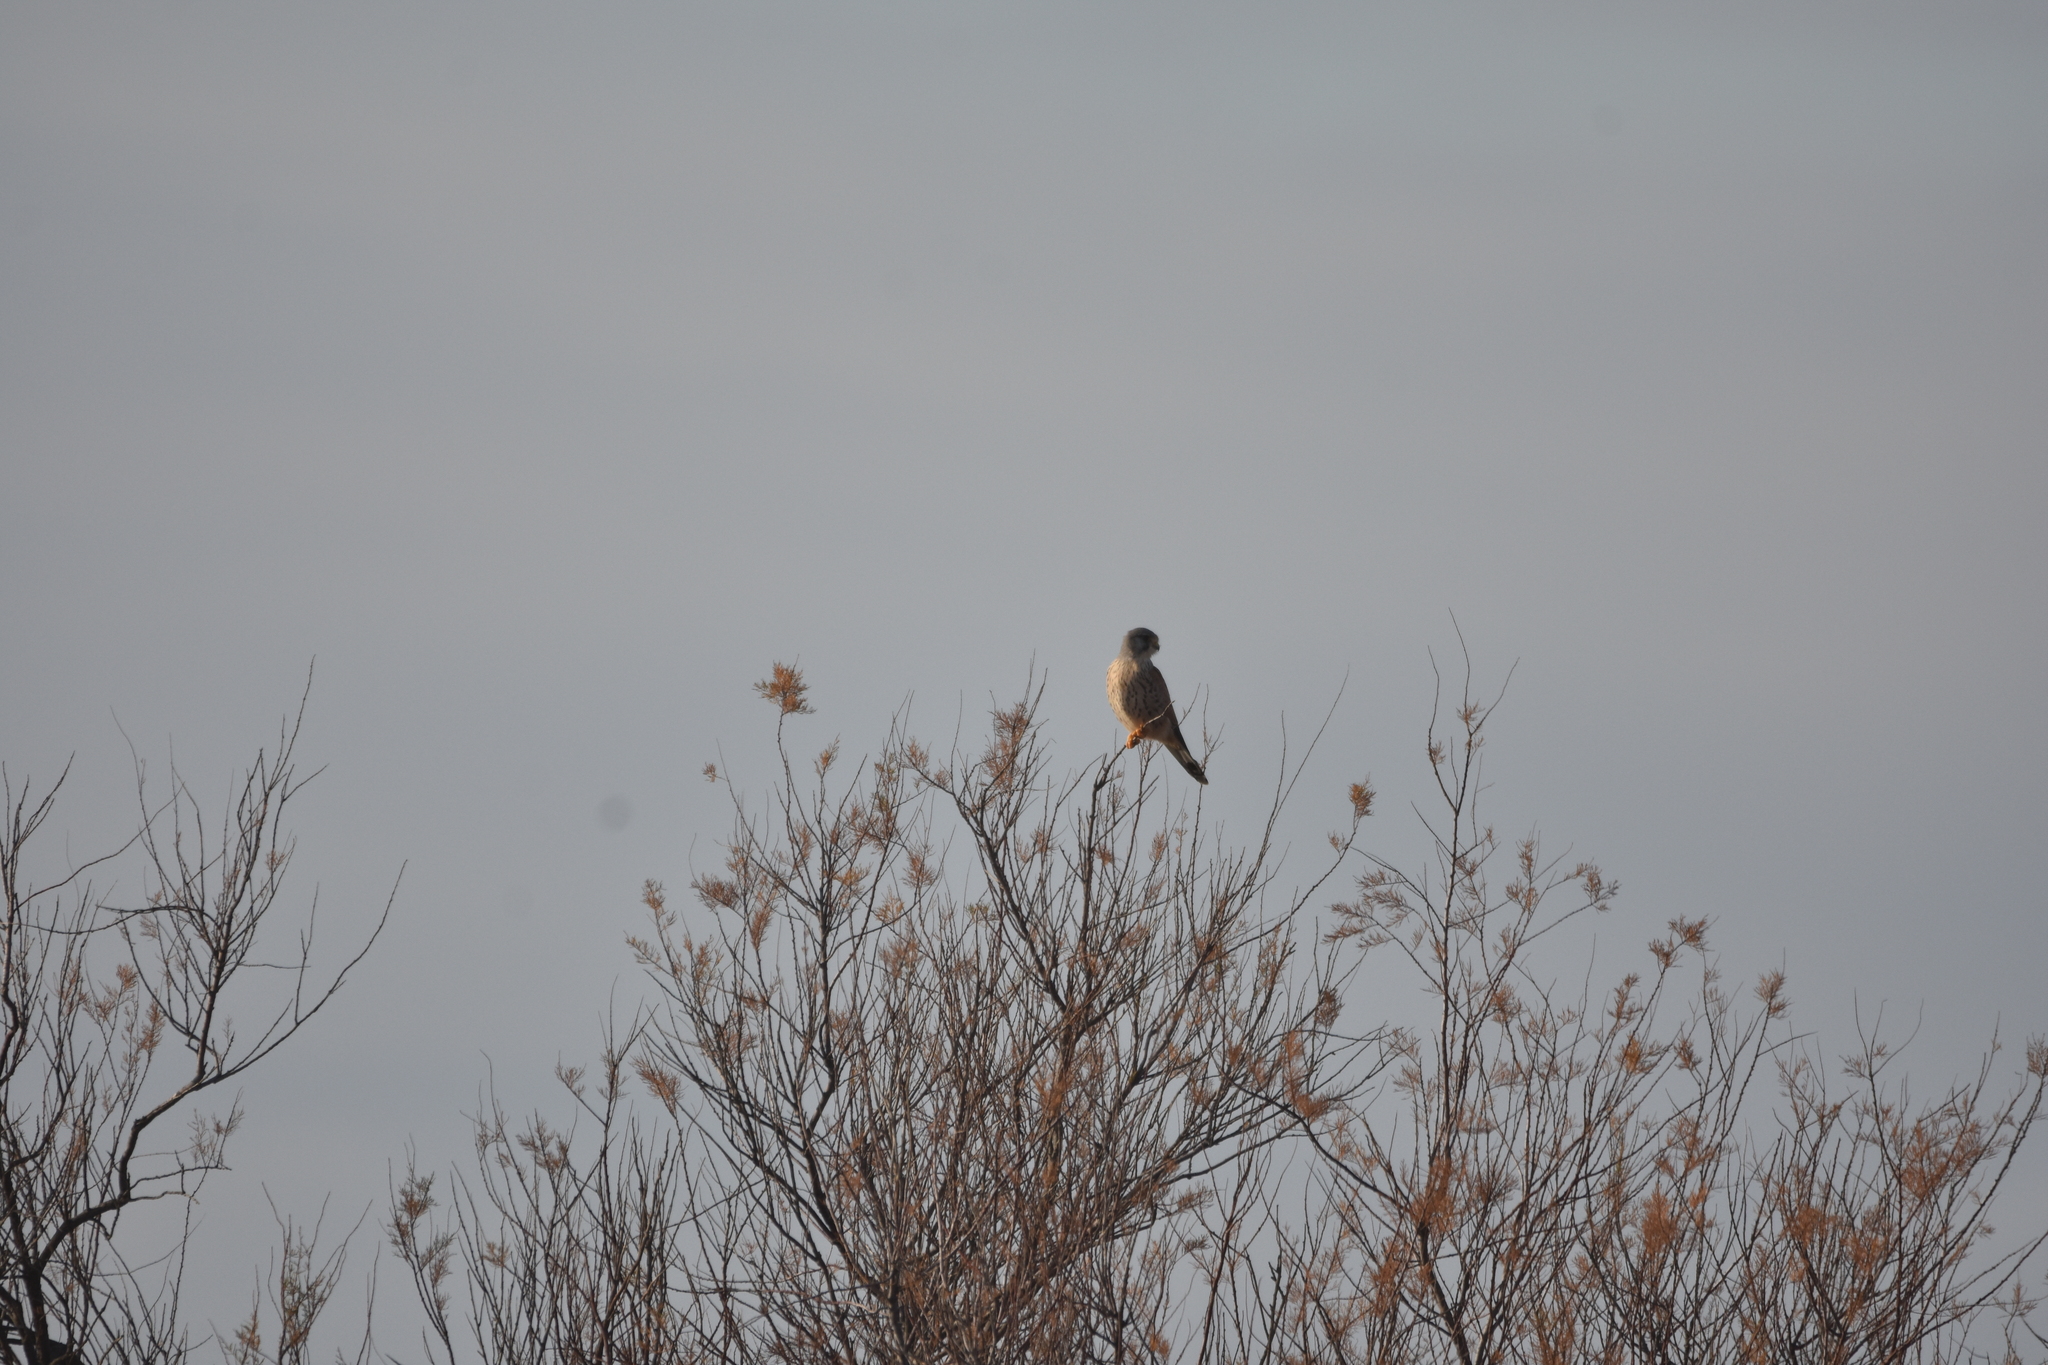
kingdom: Animalia
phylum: Chordata
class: Aves
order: Falconiformes
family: Falconidae
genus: Falco
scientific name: Falco tinnunculus
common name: Common kestrel
